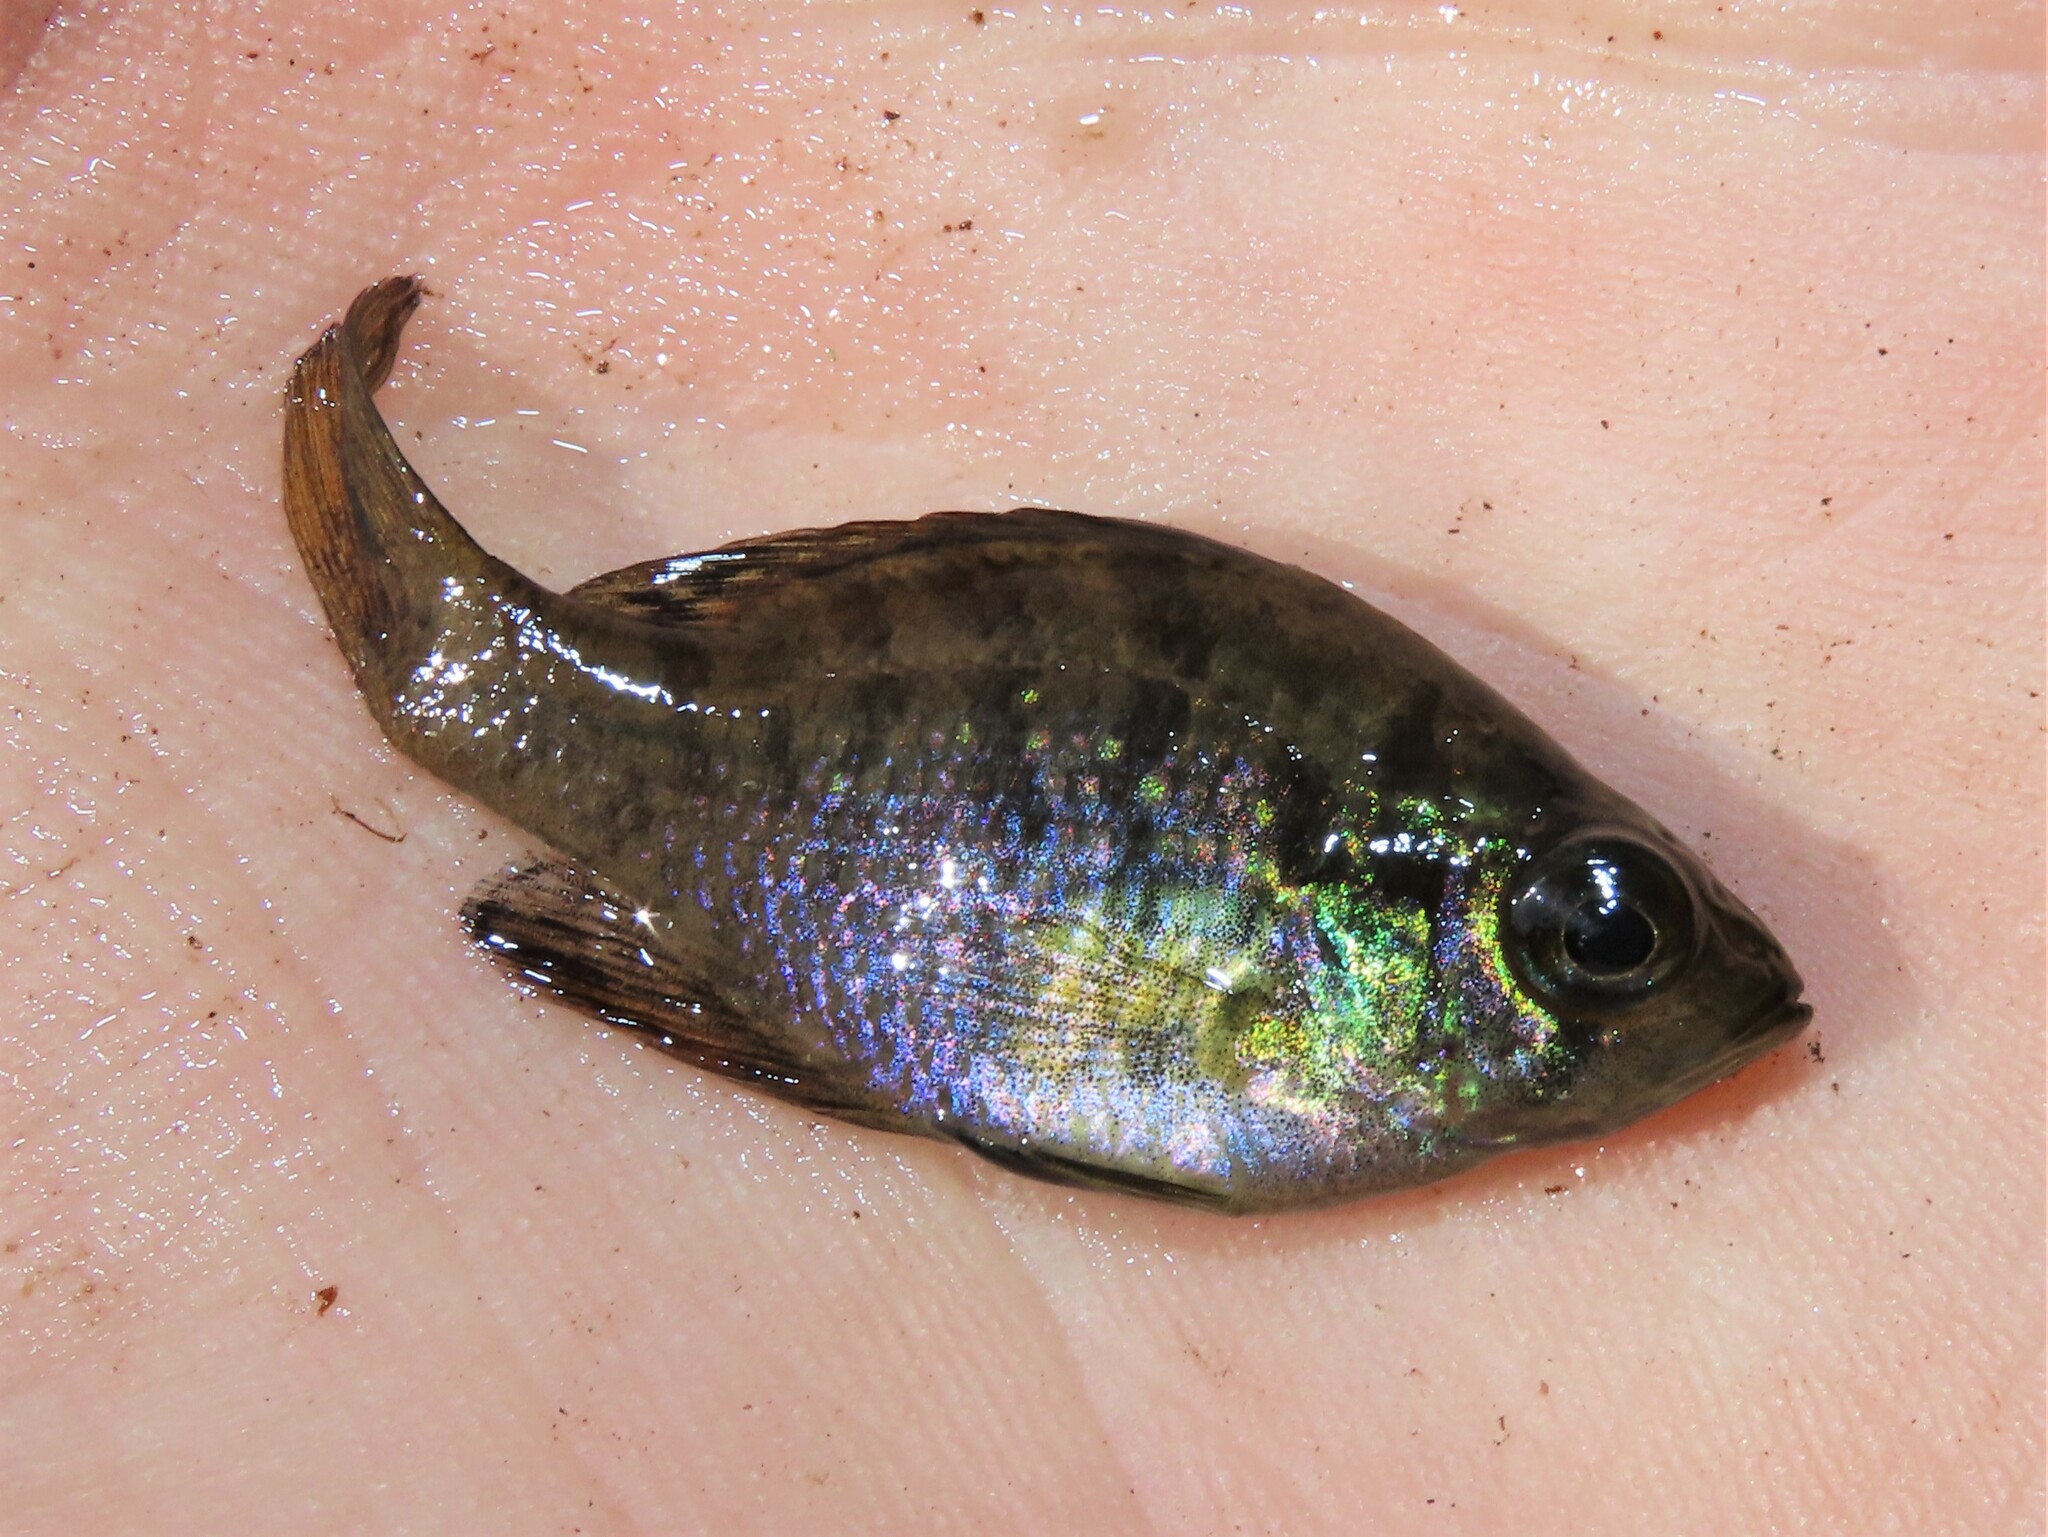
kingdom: Animalia
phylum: Chordata
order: Perciformes
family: Centrarchidae
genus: Enneacanthus
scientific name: Enneacanthus obesus
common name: Banded sunfish
